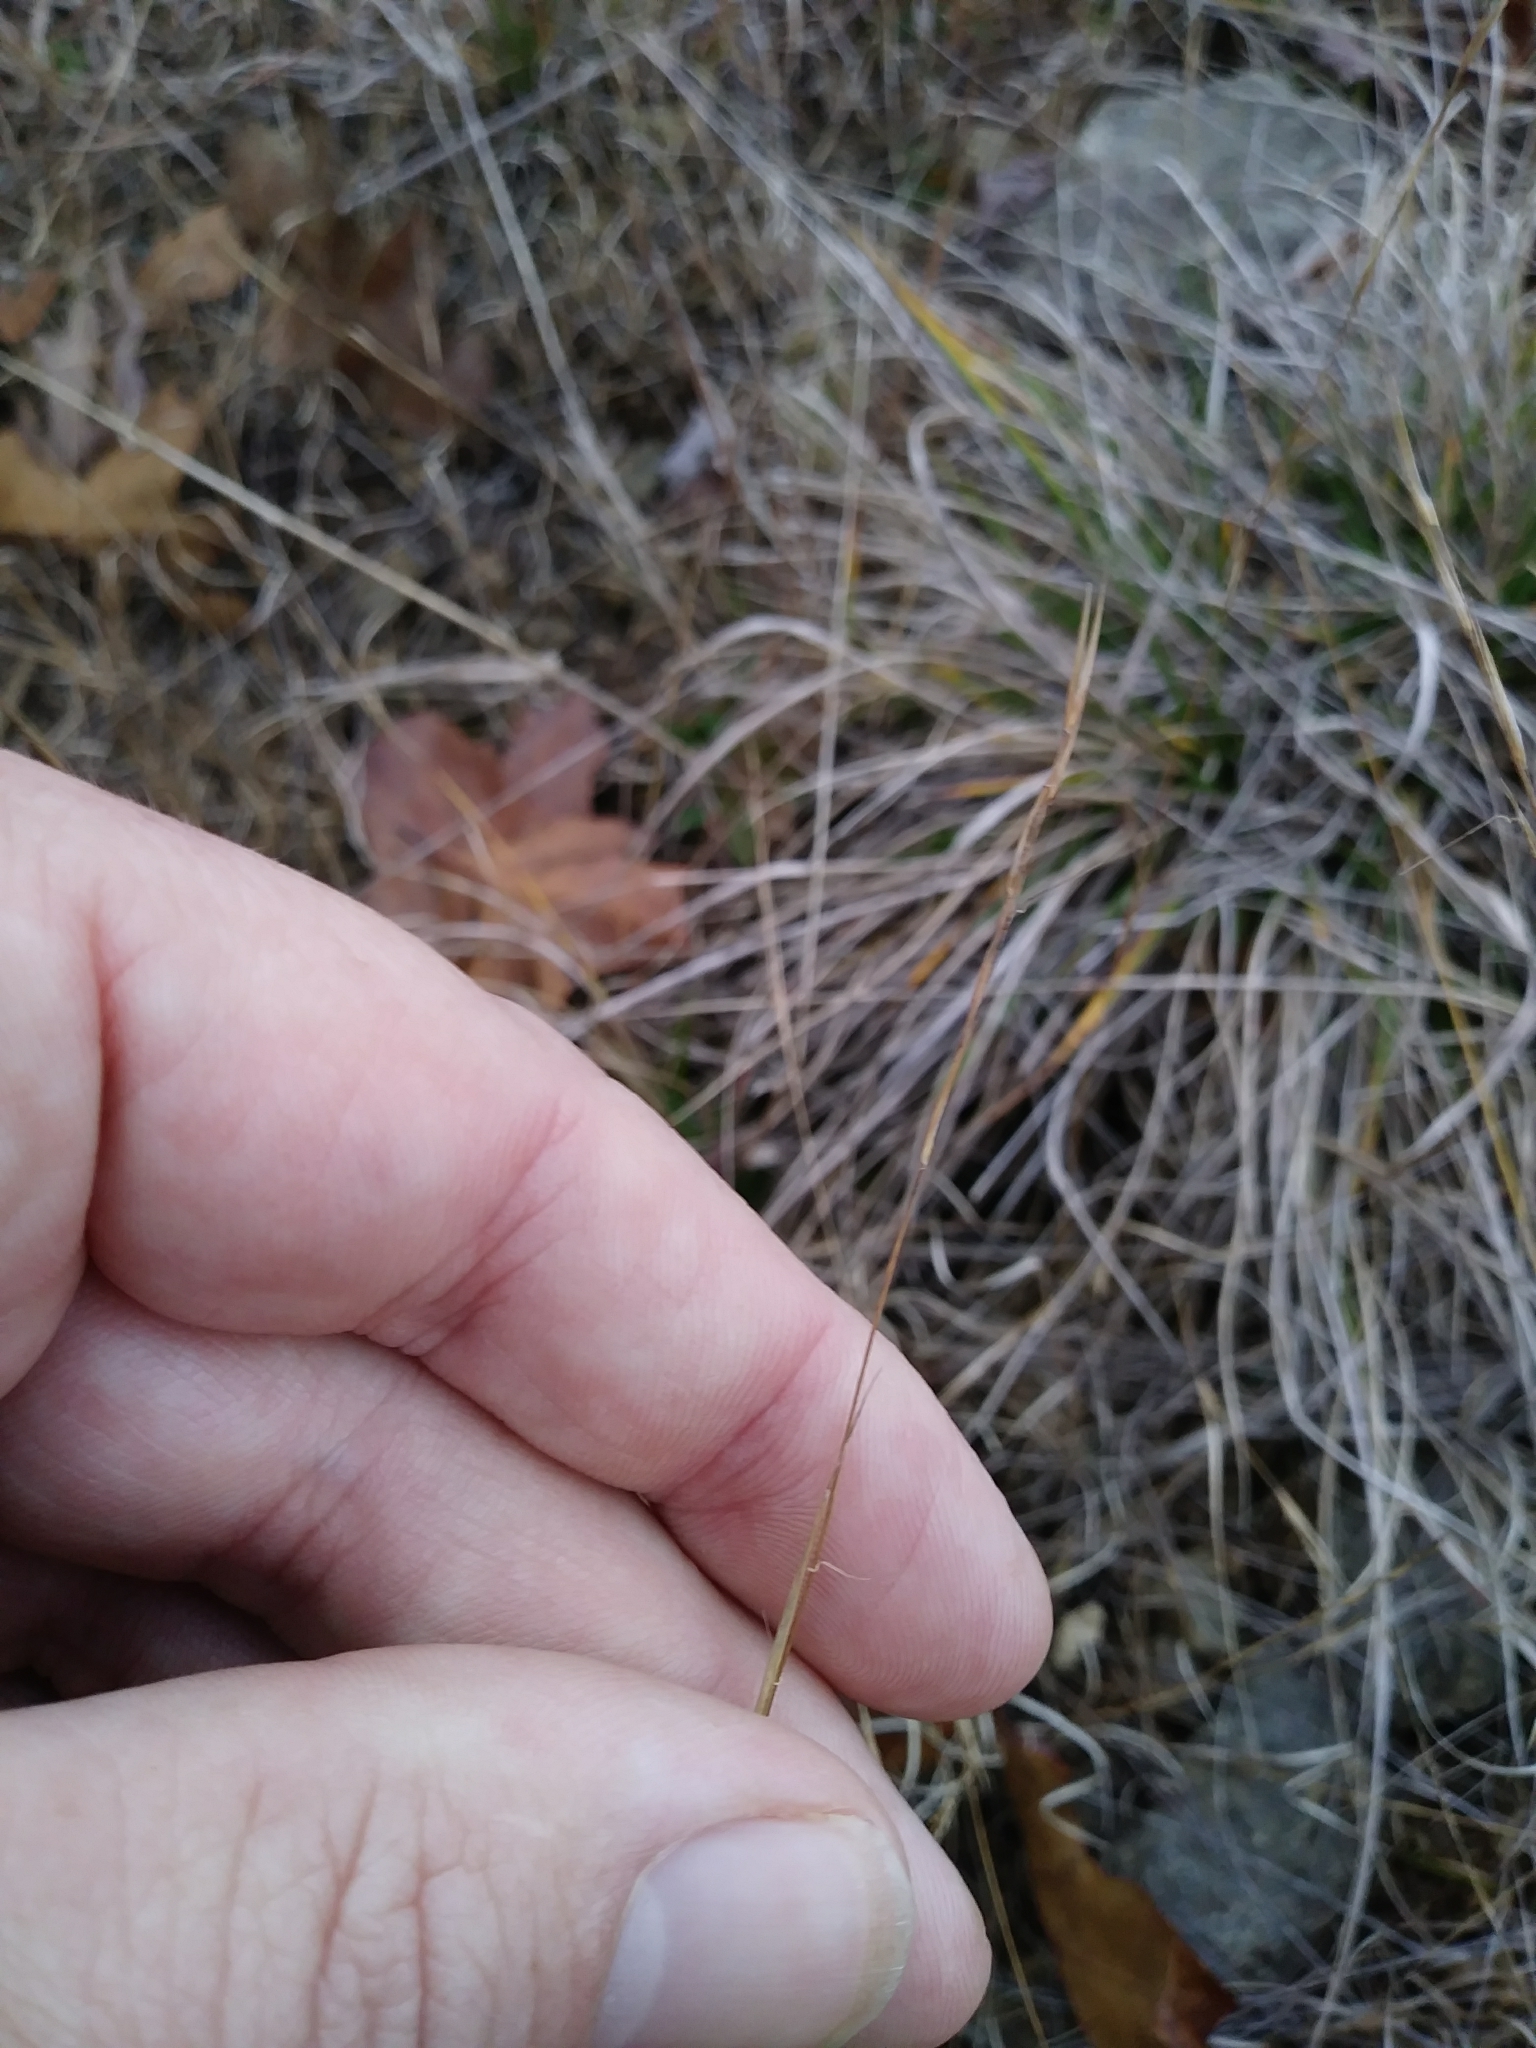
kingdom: Plantae
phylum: Tracheophyta
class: Liliopsida
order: Poales
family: Poaceae
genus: Aristida
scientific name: Aristida dichotoma
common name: Churchmouse three-awn
